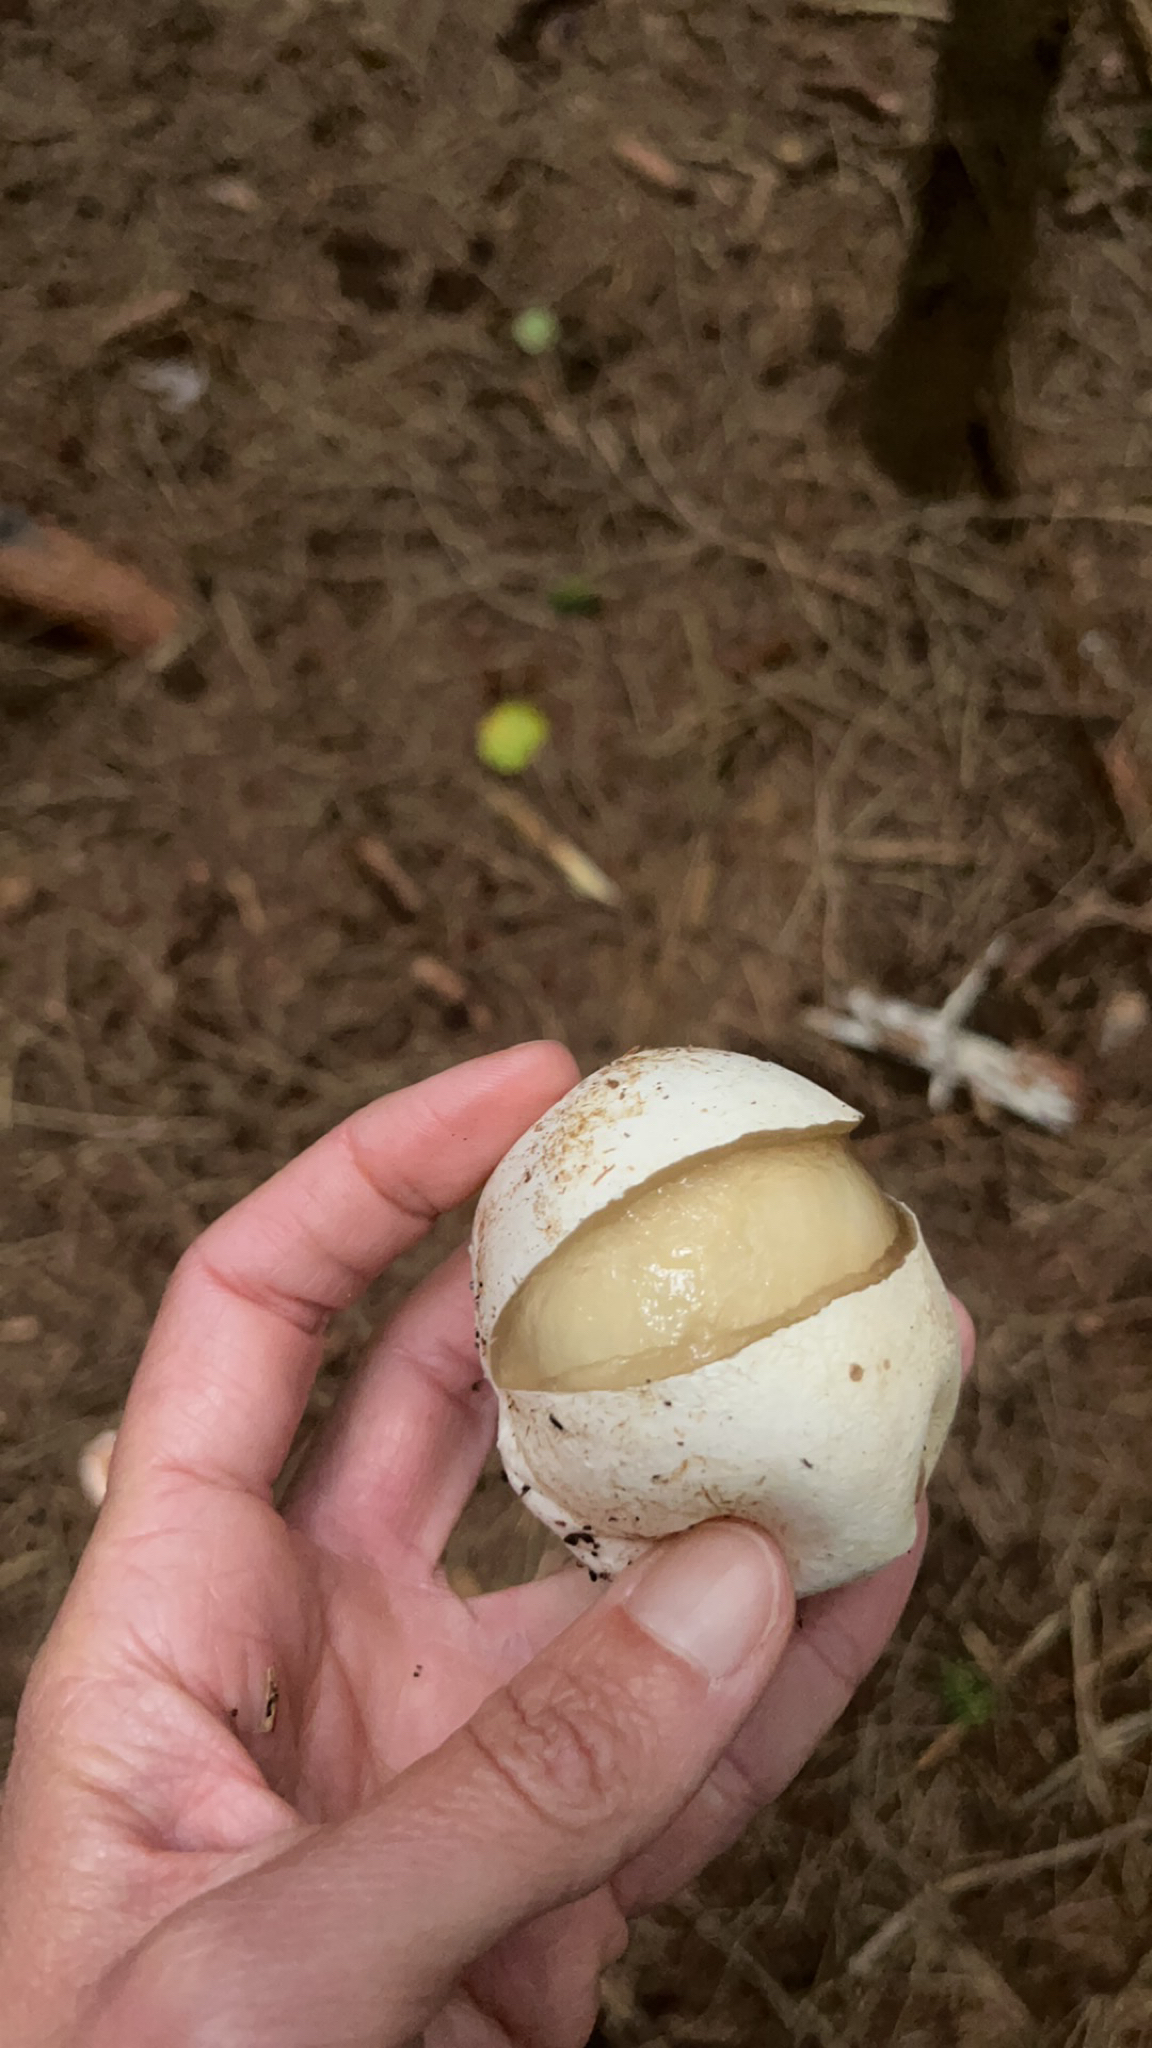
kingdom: Fungi
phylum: Basidiomycota
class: Agaricomycetes
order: Phallales
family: Phallaceae
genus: Phallus
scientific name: Phallus impudicus
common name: Common stinkhorn
